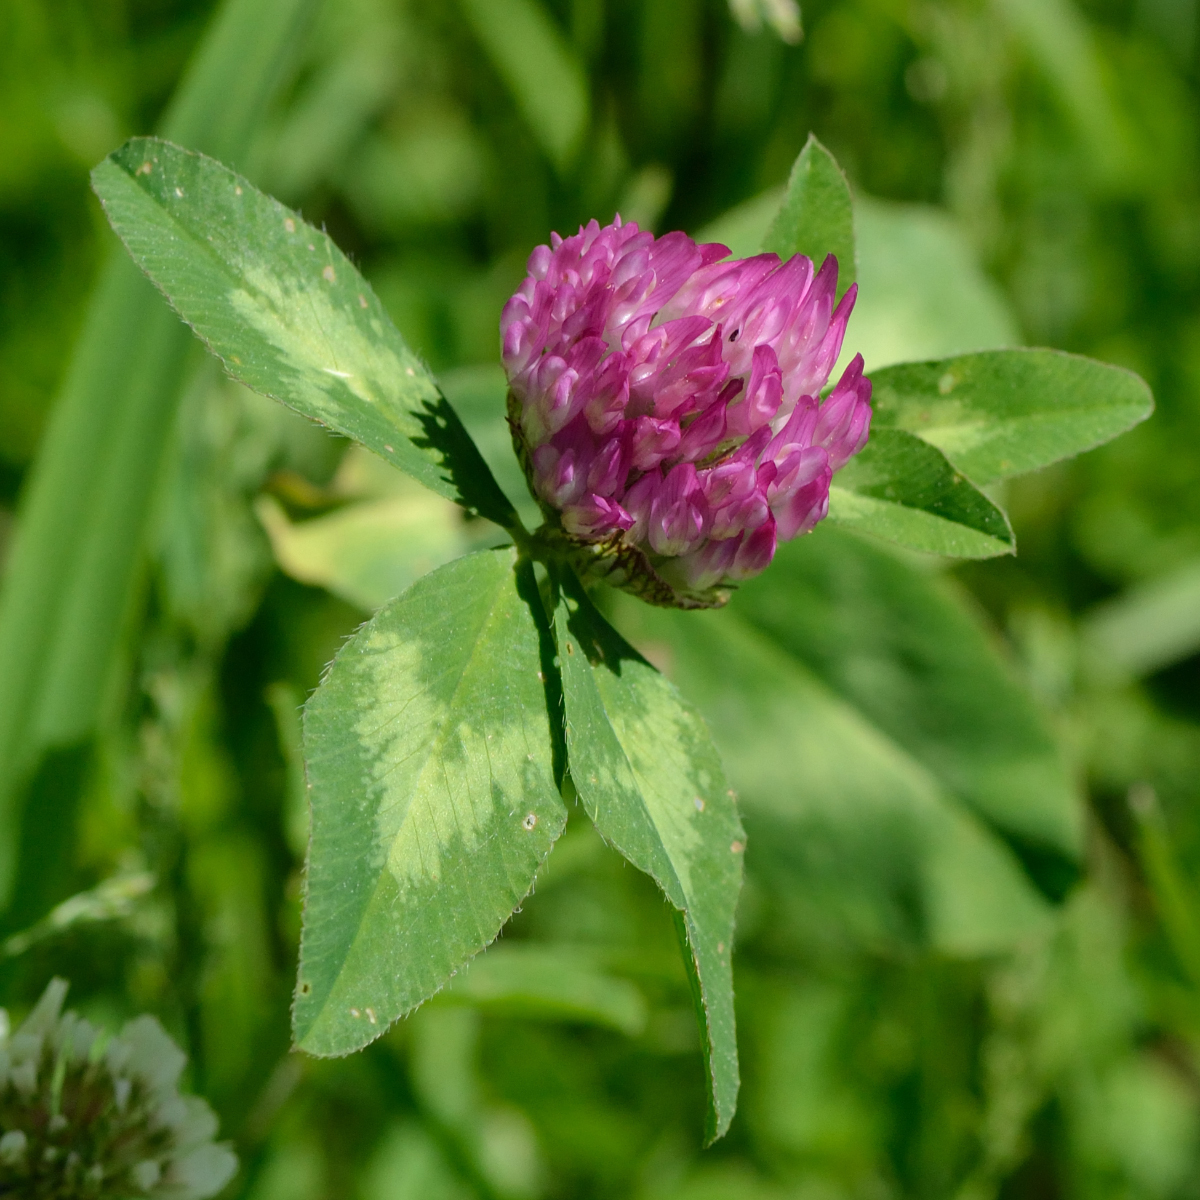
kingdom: Plantae
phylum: Tracheophyta
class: Magnoliopsida
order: Fabales
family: Fabaceae
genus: Trifolium
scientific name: Trifolium pratense
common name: Red clover
